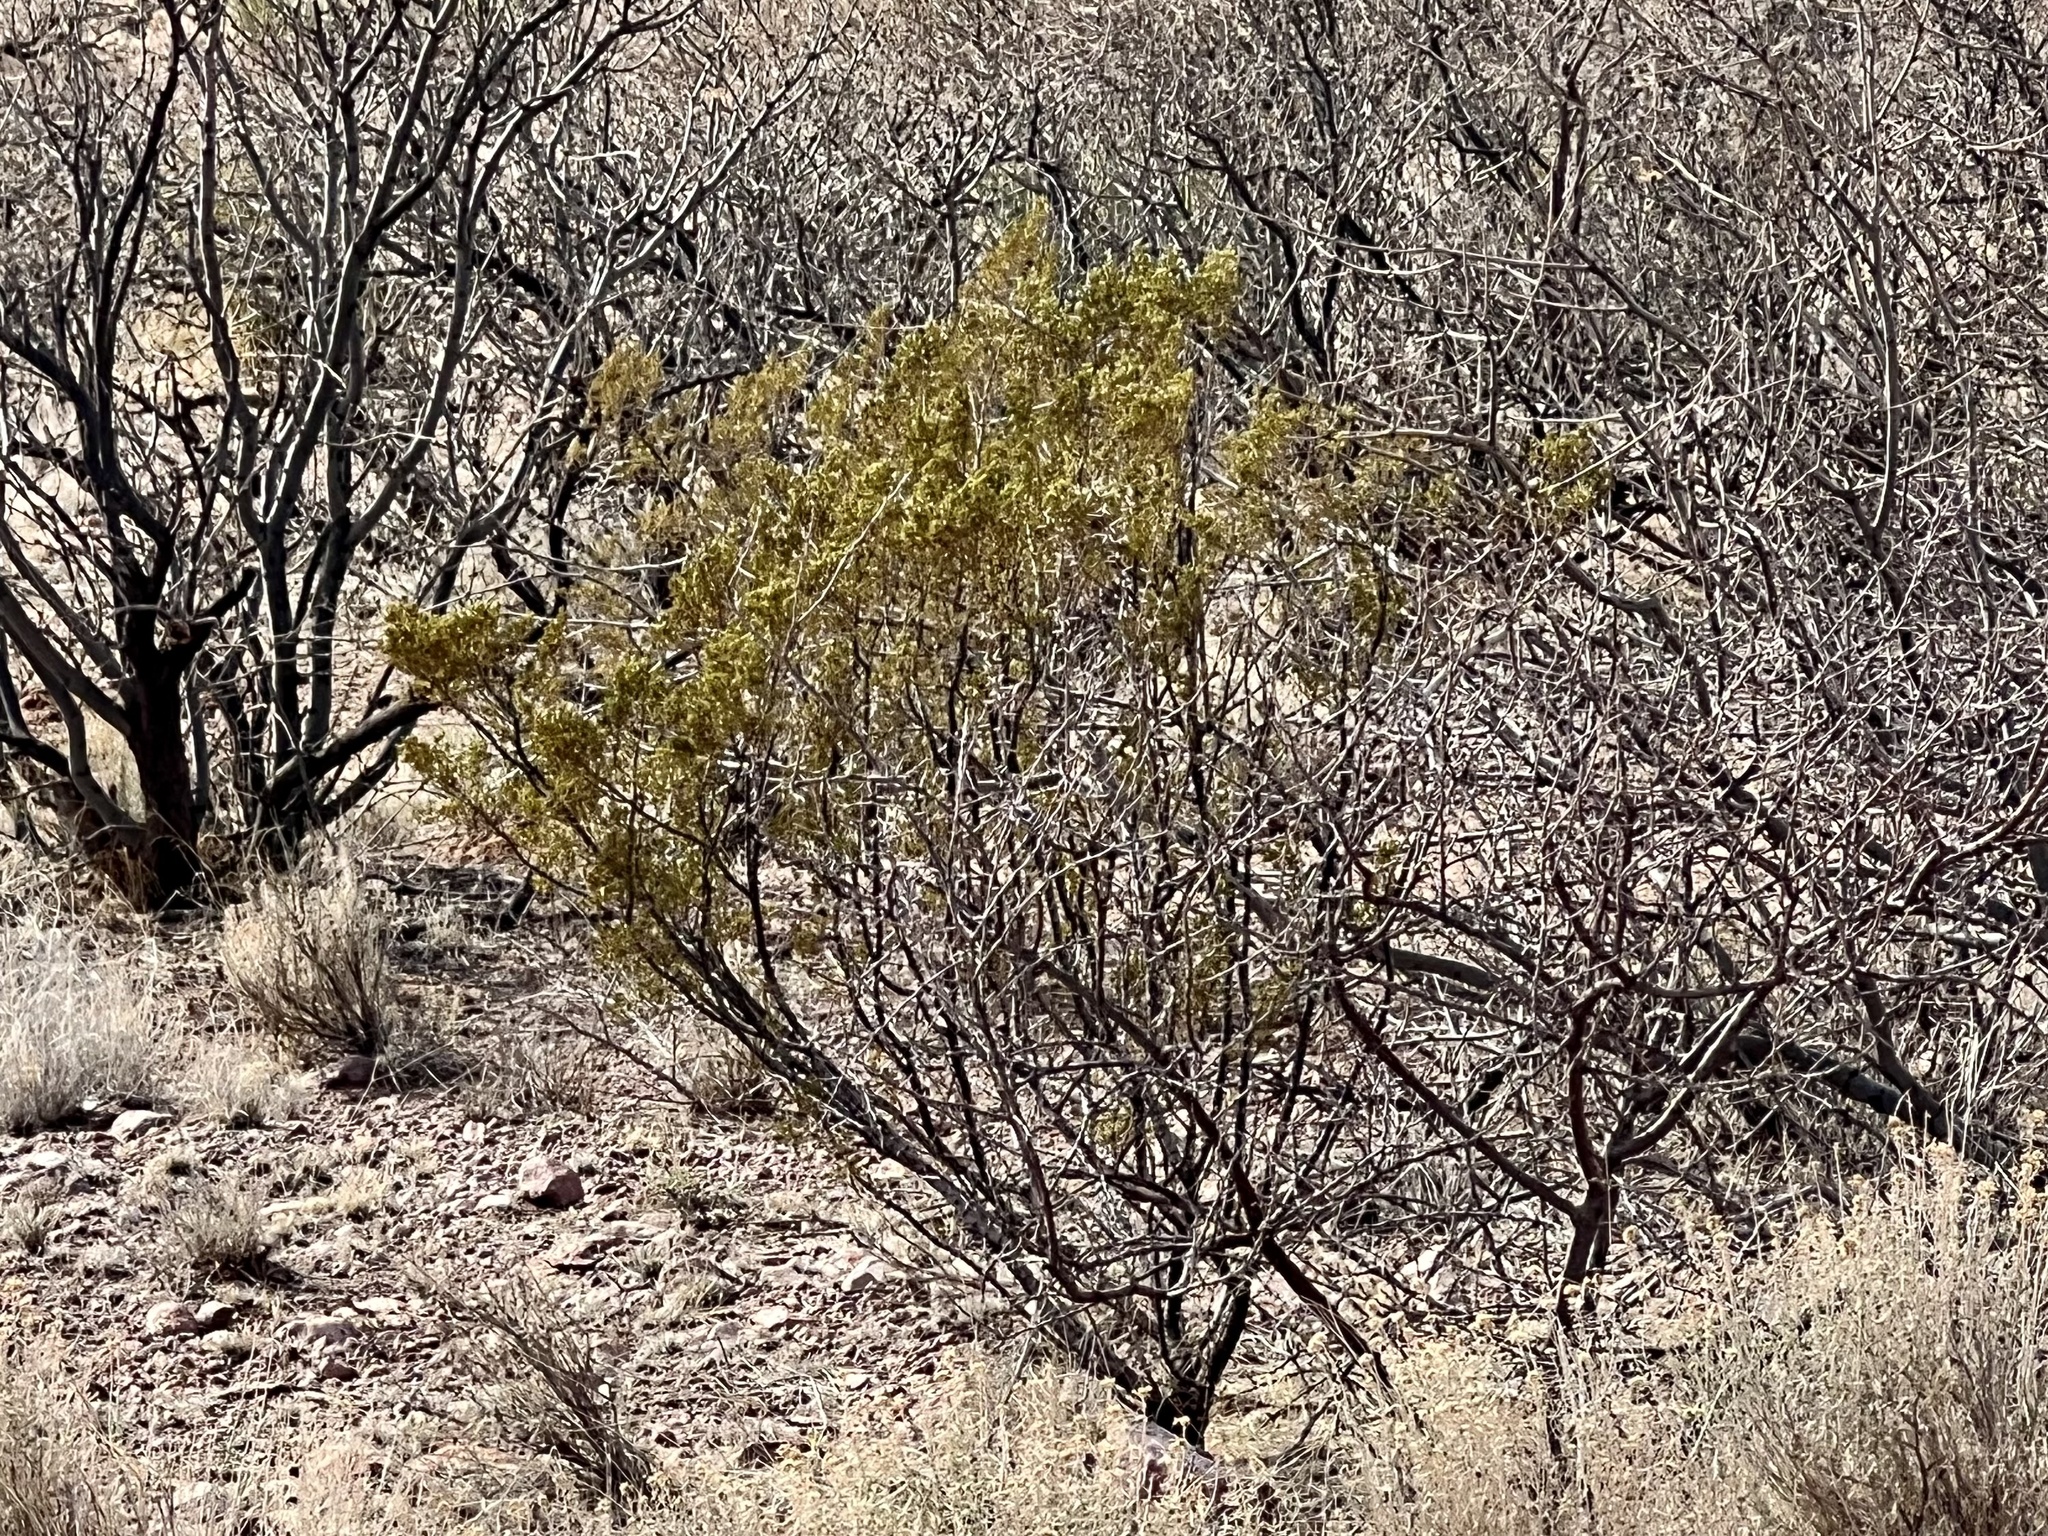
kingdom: Plantae
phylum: Tracheophyta
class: Magnoliopsida
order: Zygophyllales
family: Zygophyllaceae
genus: Larrea
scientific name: Larrea tridentata
